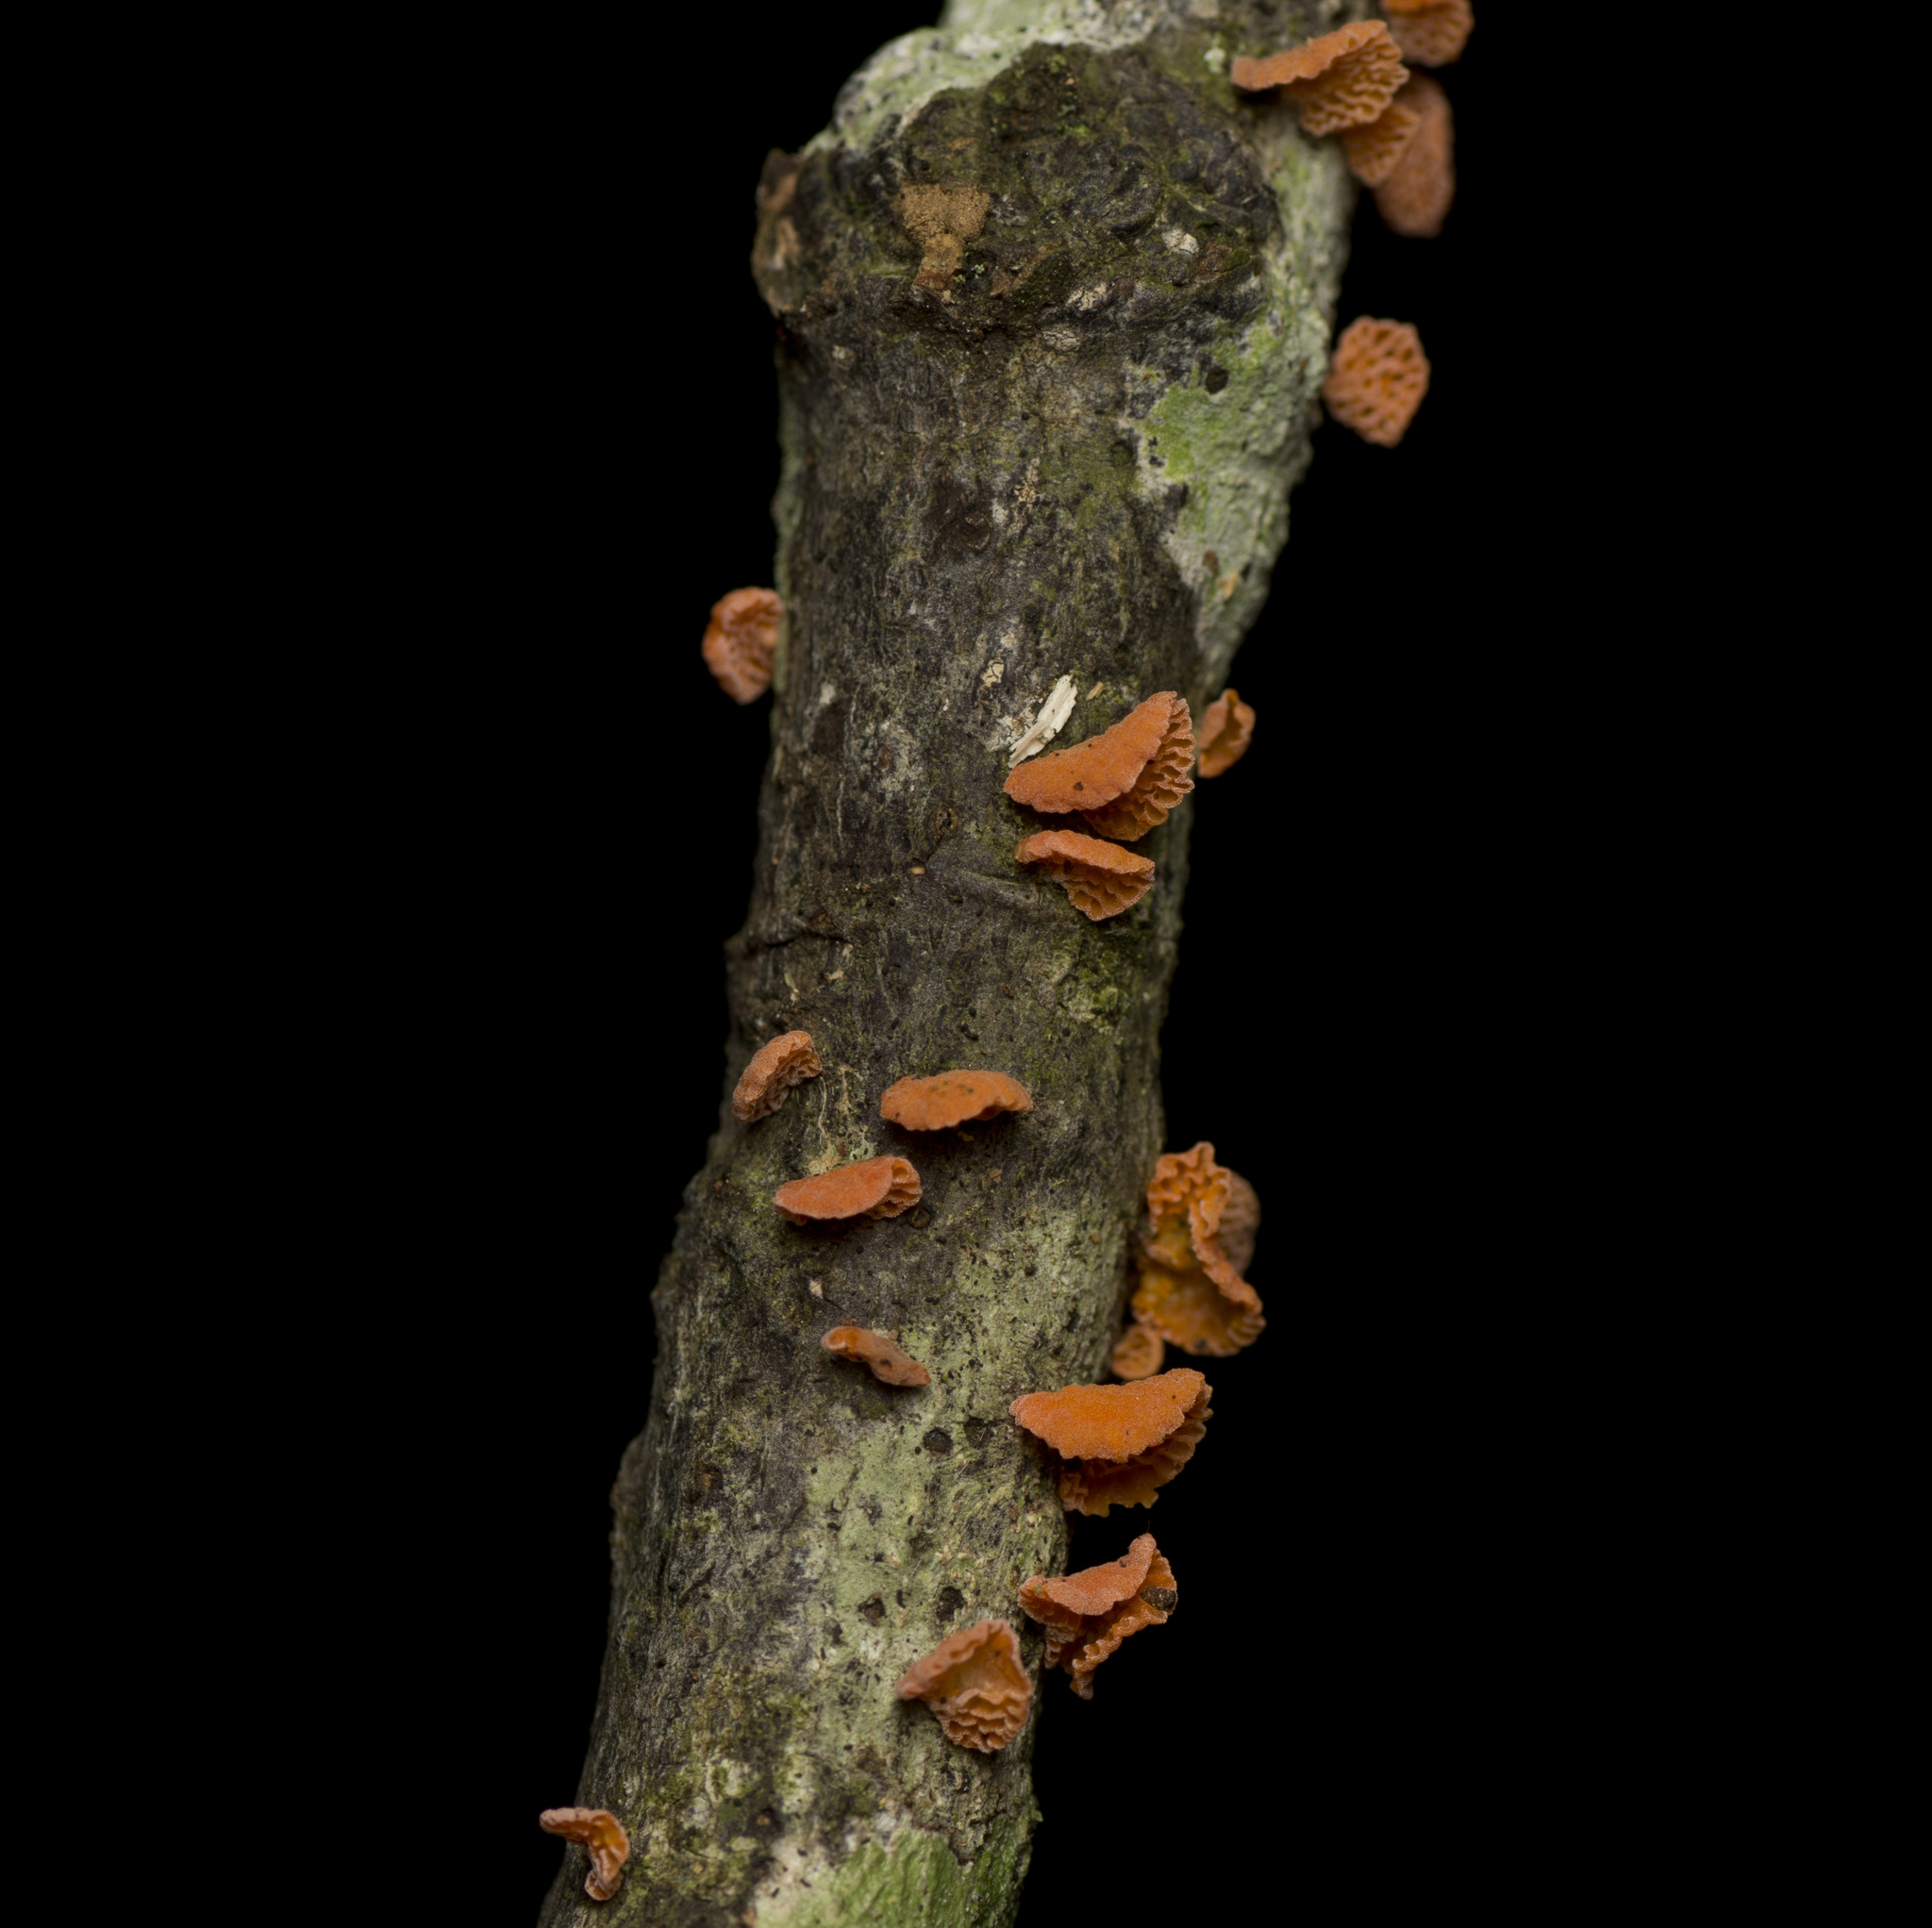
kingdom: Fungi
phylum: Basidiomycota
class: Agaricomycetes
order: Agaricales
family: Omphalotaceae
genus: Anthracophyllum
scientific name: Anthracophyllum archeri
